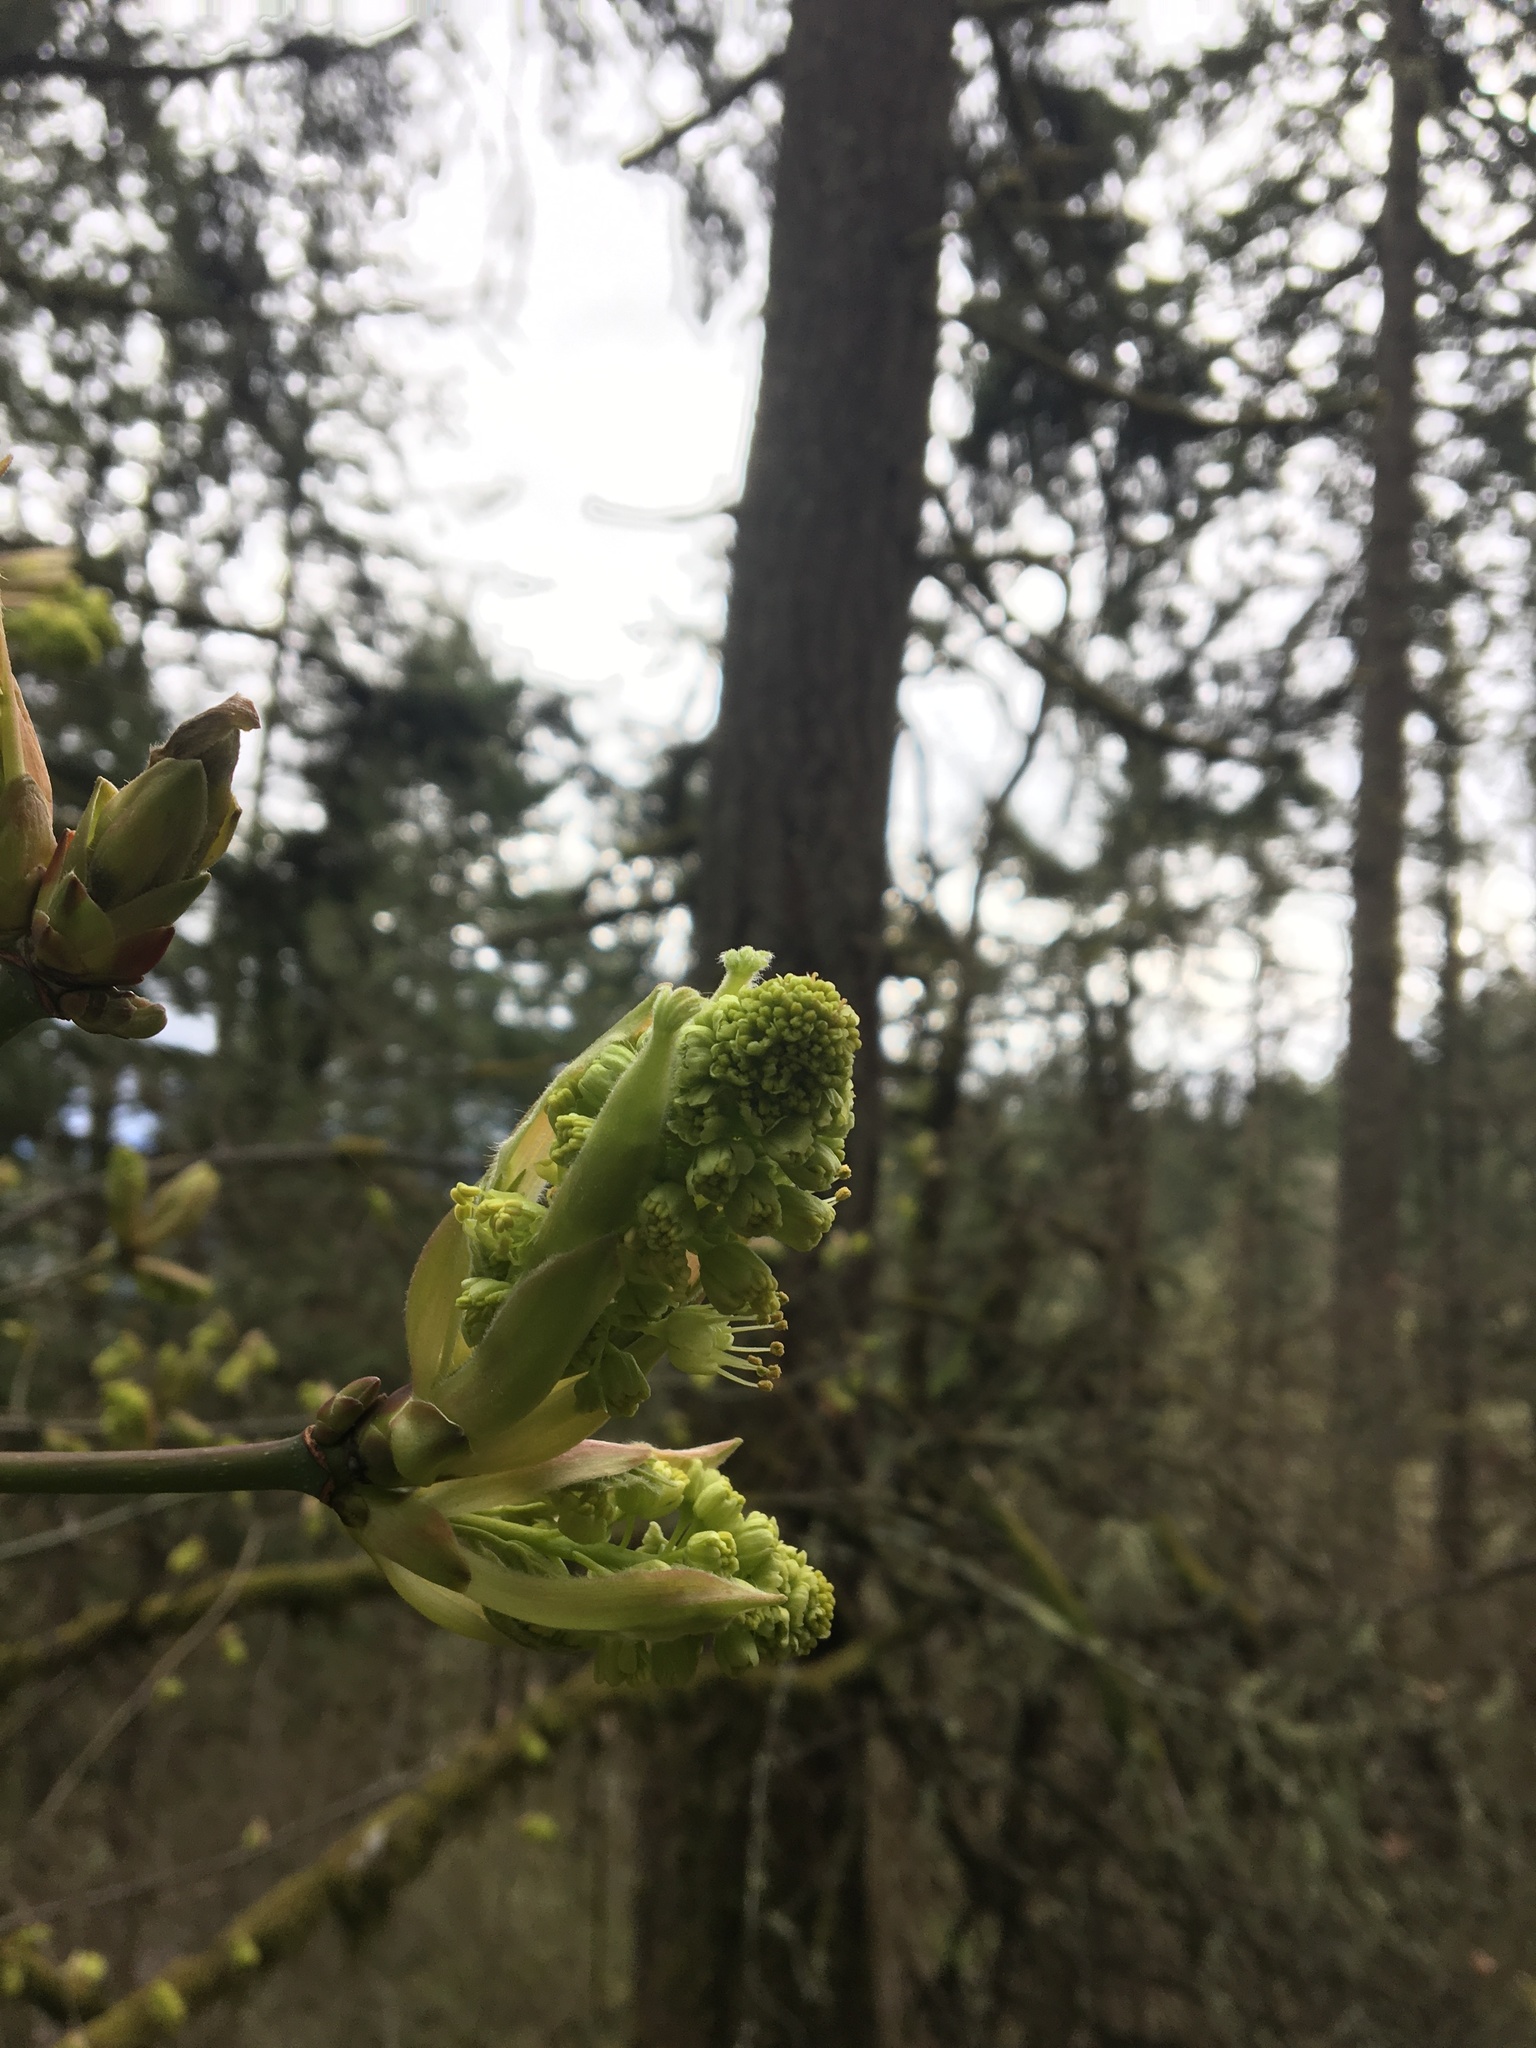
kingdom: Plantae
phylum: Tracheophyta
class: Magnoliopsida
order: Sapindales
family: Sapindaceae
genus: Acer
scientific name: Acer macrophyllum
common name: Oregon maple
